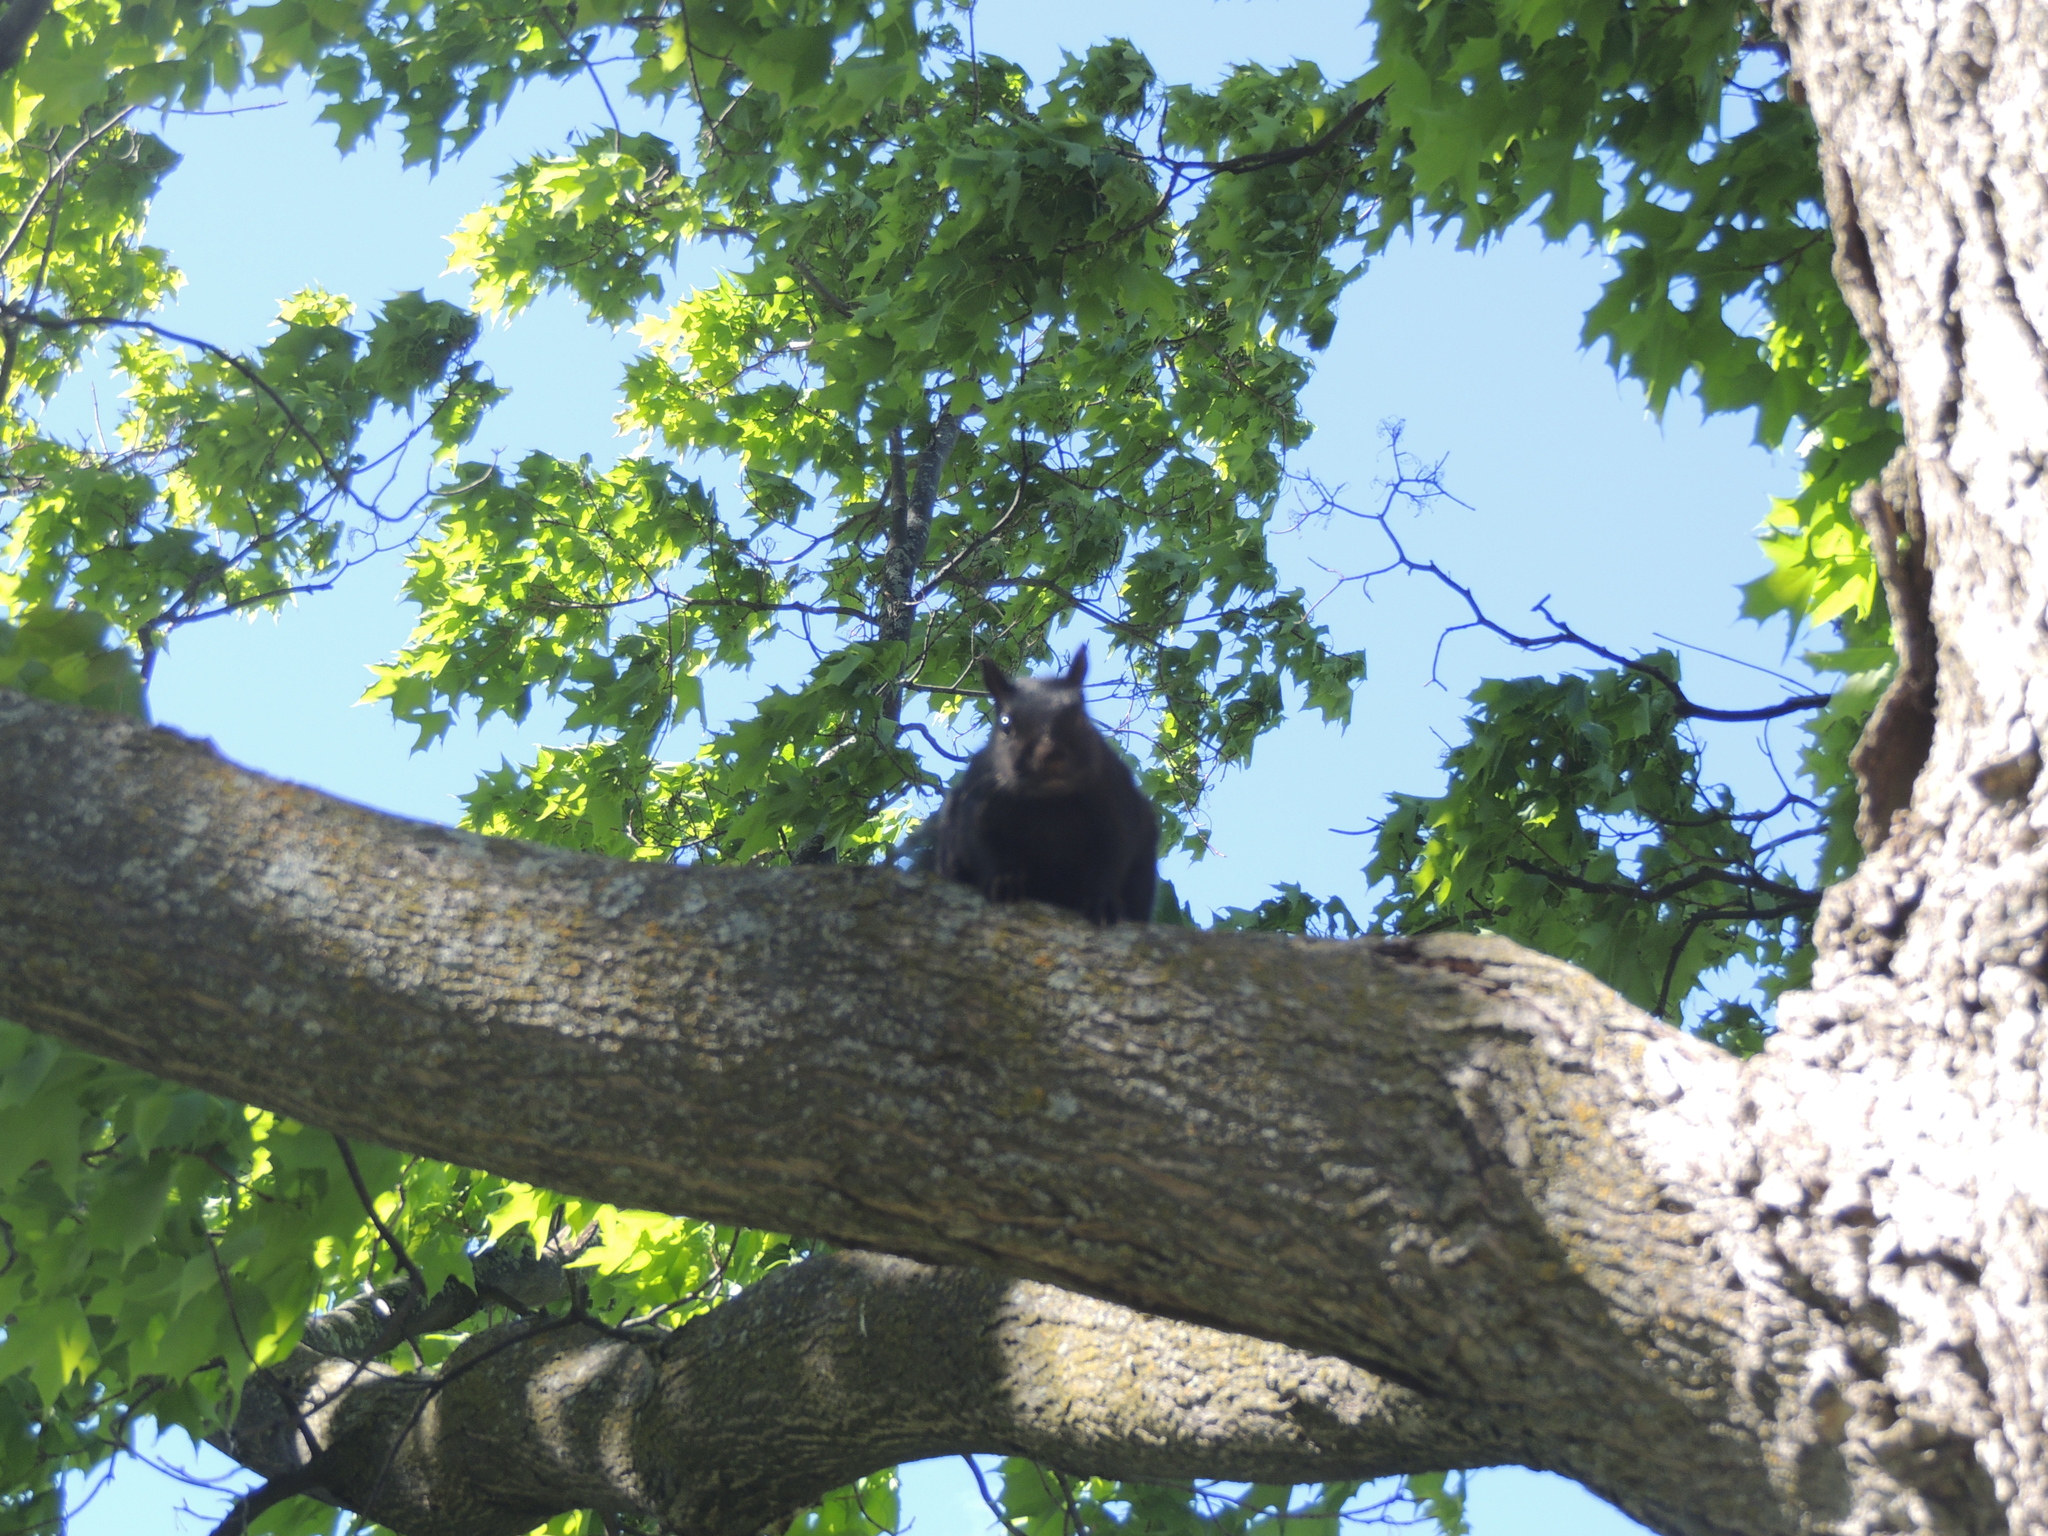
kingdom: Animalia
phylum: Chordata
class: Mammalia
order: Rodentia
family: Sciuridae
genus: Sciurus
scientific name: Sciurus carolinensis
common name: Eastern gray squirrel
